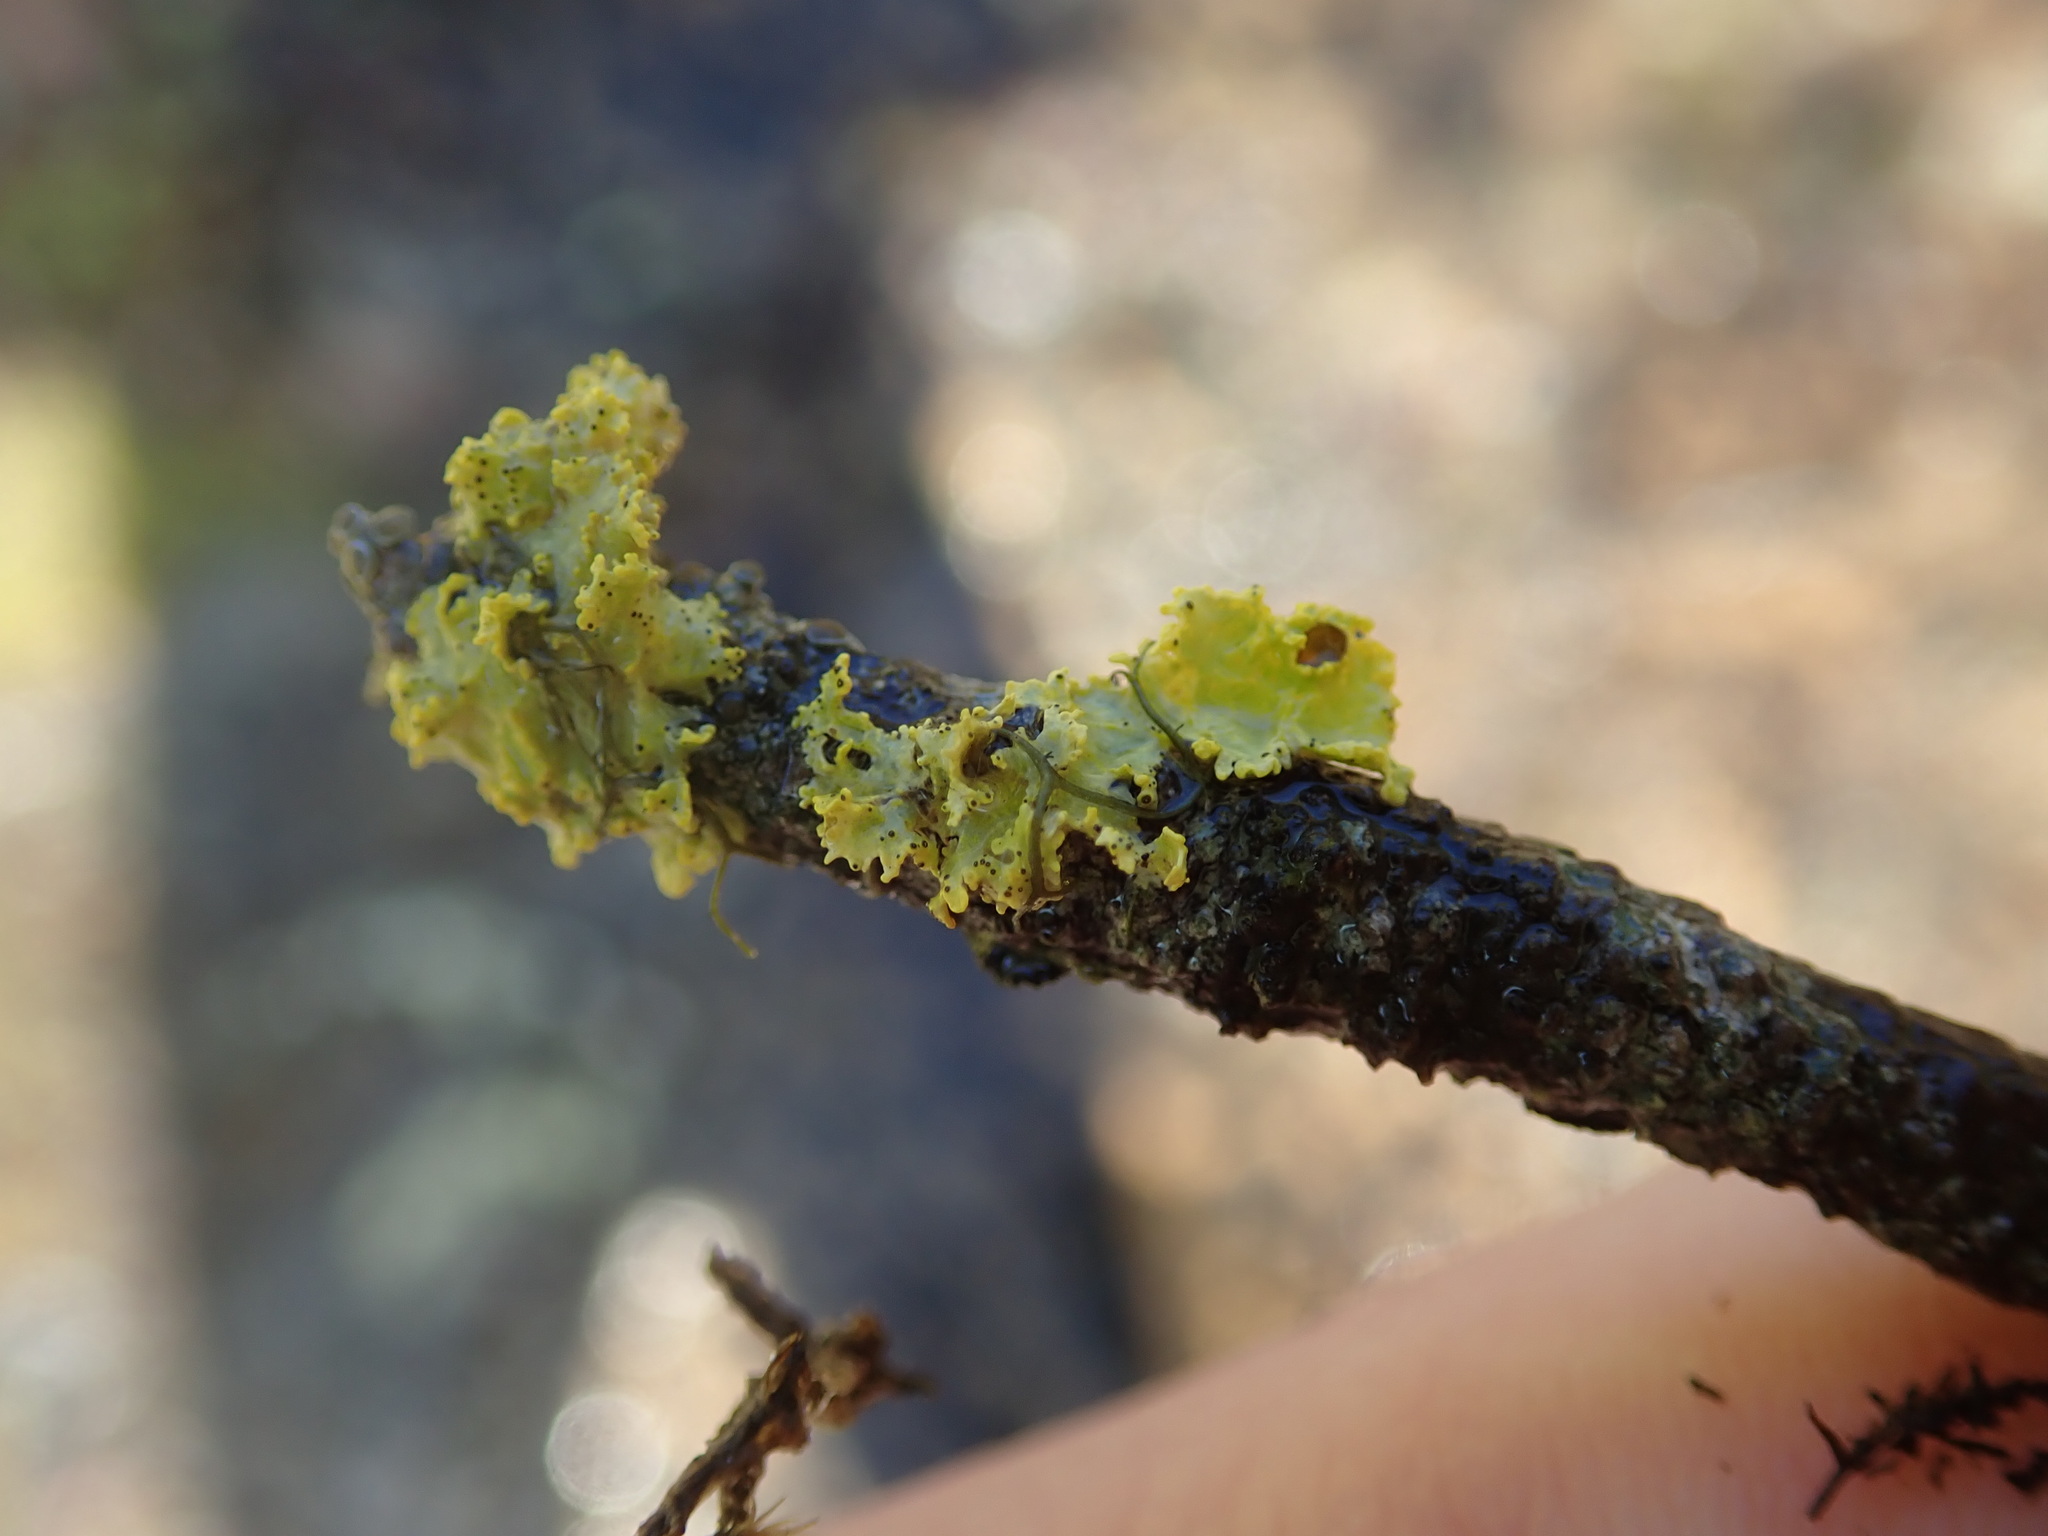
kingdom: Fungi
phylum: Ascomycota
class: Lecanoromycetes
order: Lecanorales
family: Parmeliaceae
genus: Vulpicida
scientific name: Vulpicida canadensis
